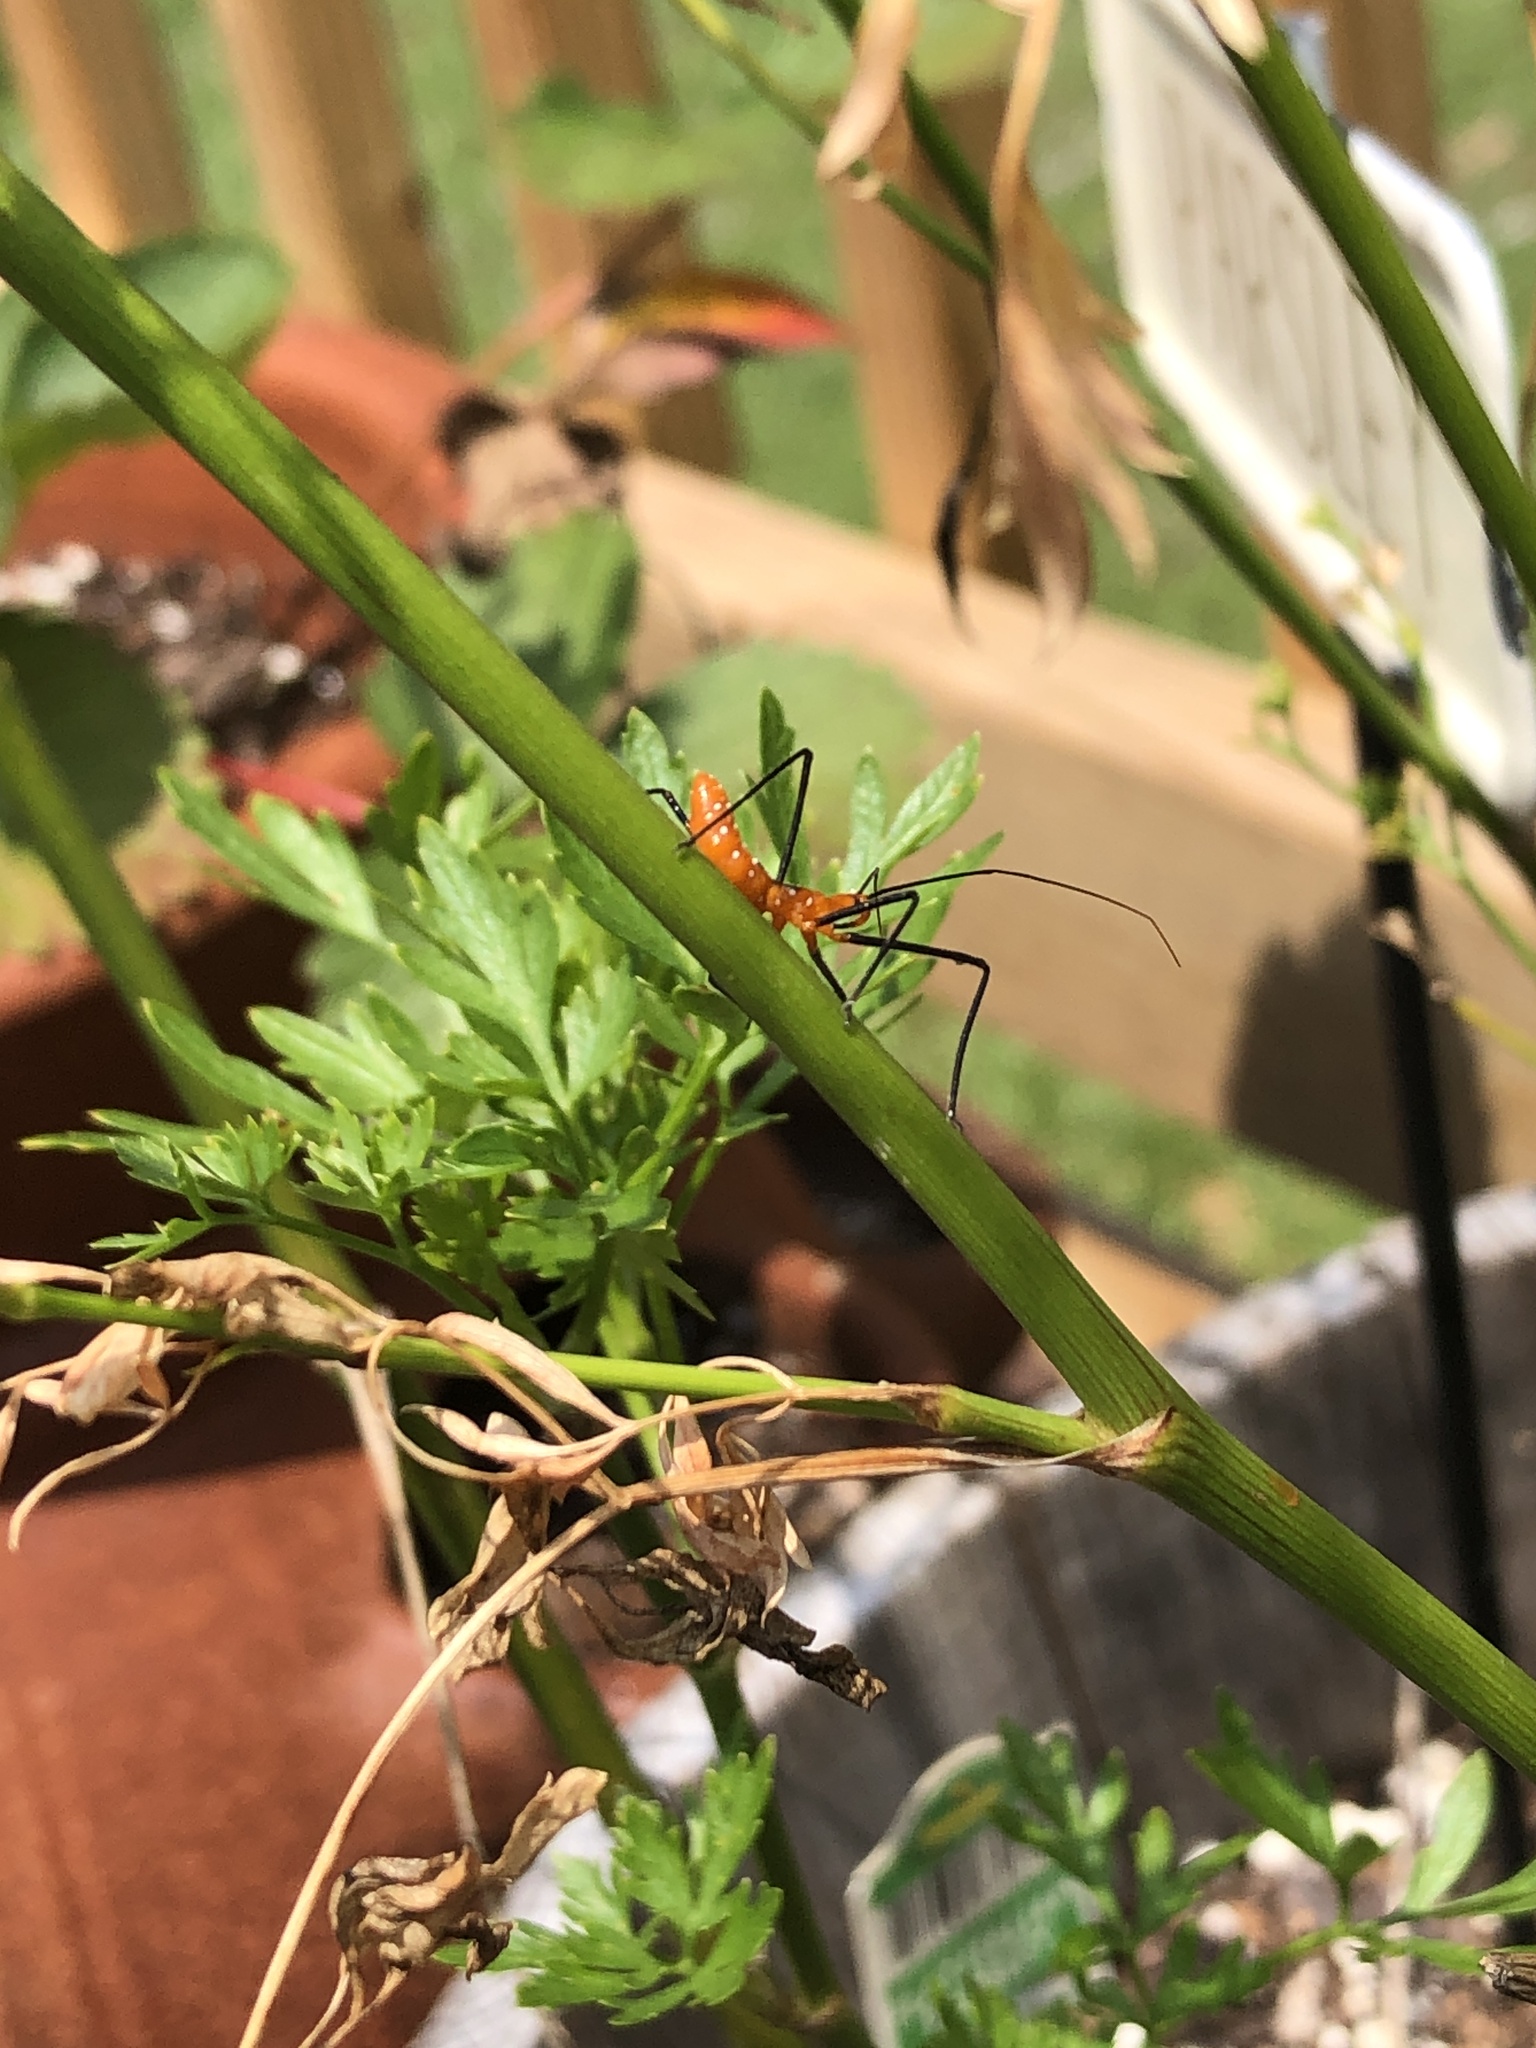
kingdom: Animalia
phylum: Arthropoda
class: Insecta
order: Hemiptera
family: Reduviidae
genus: Zelus
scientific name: Zelus longipes
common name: Milkweed assassin bug
